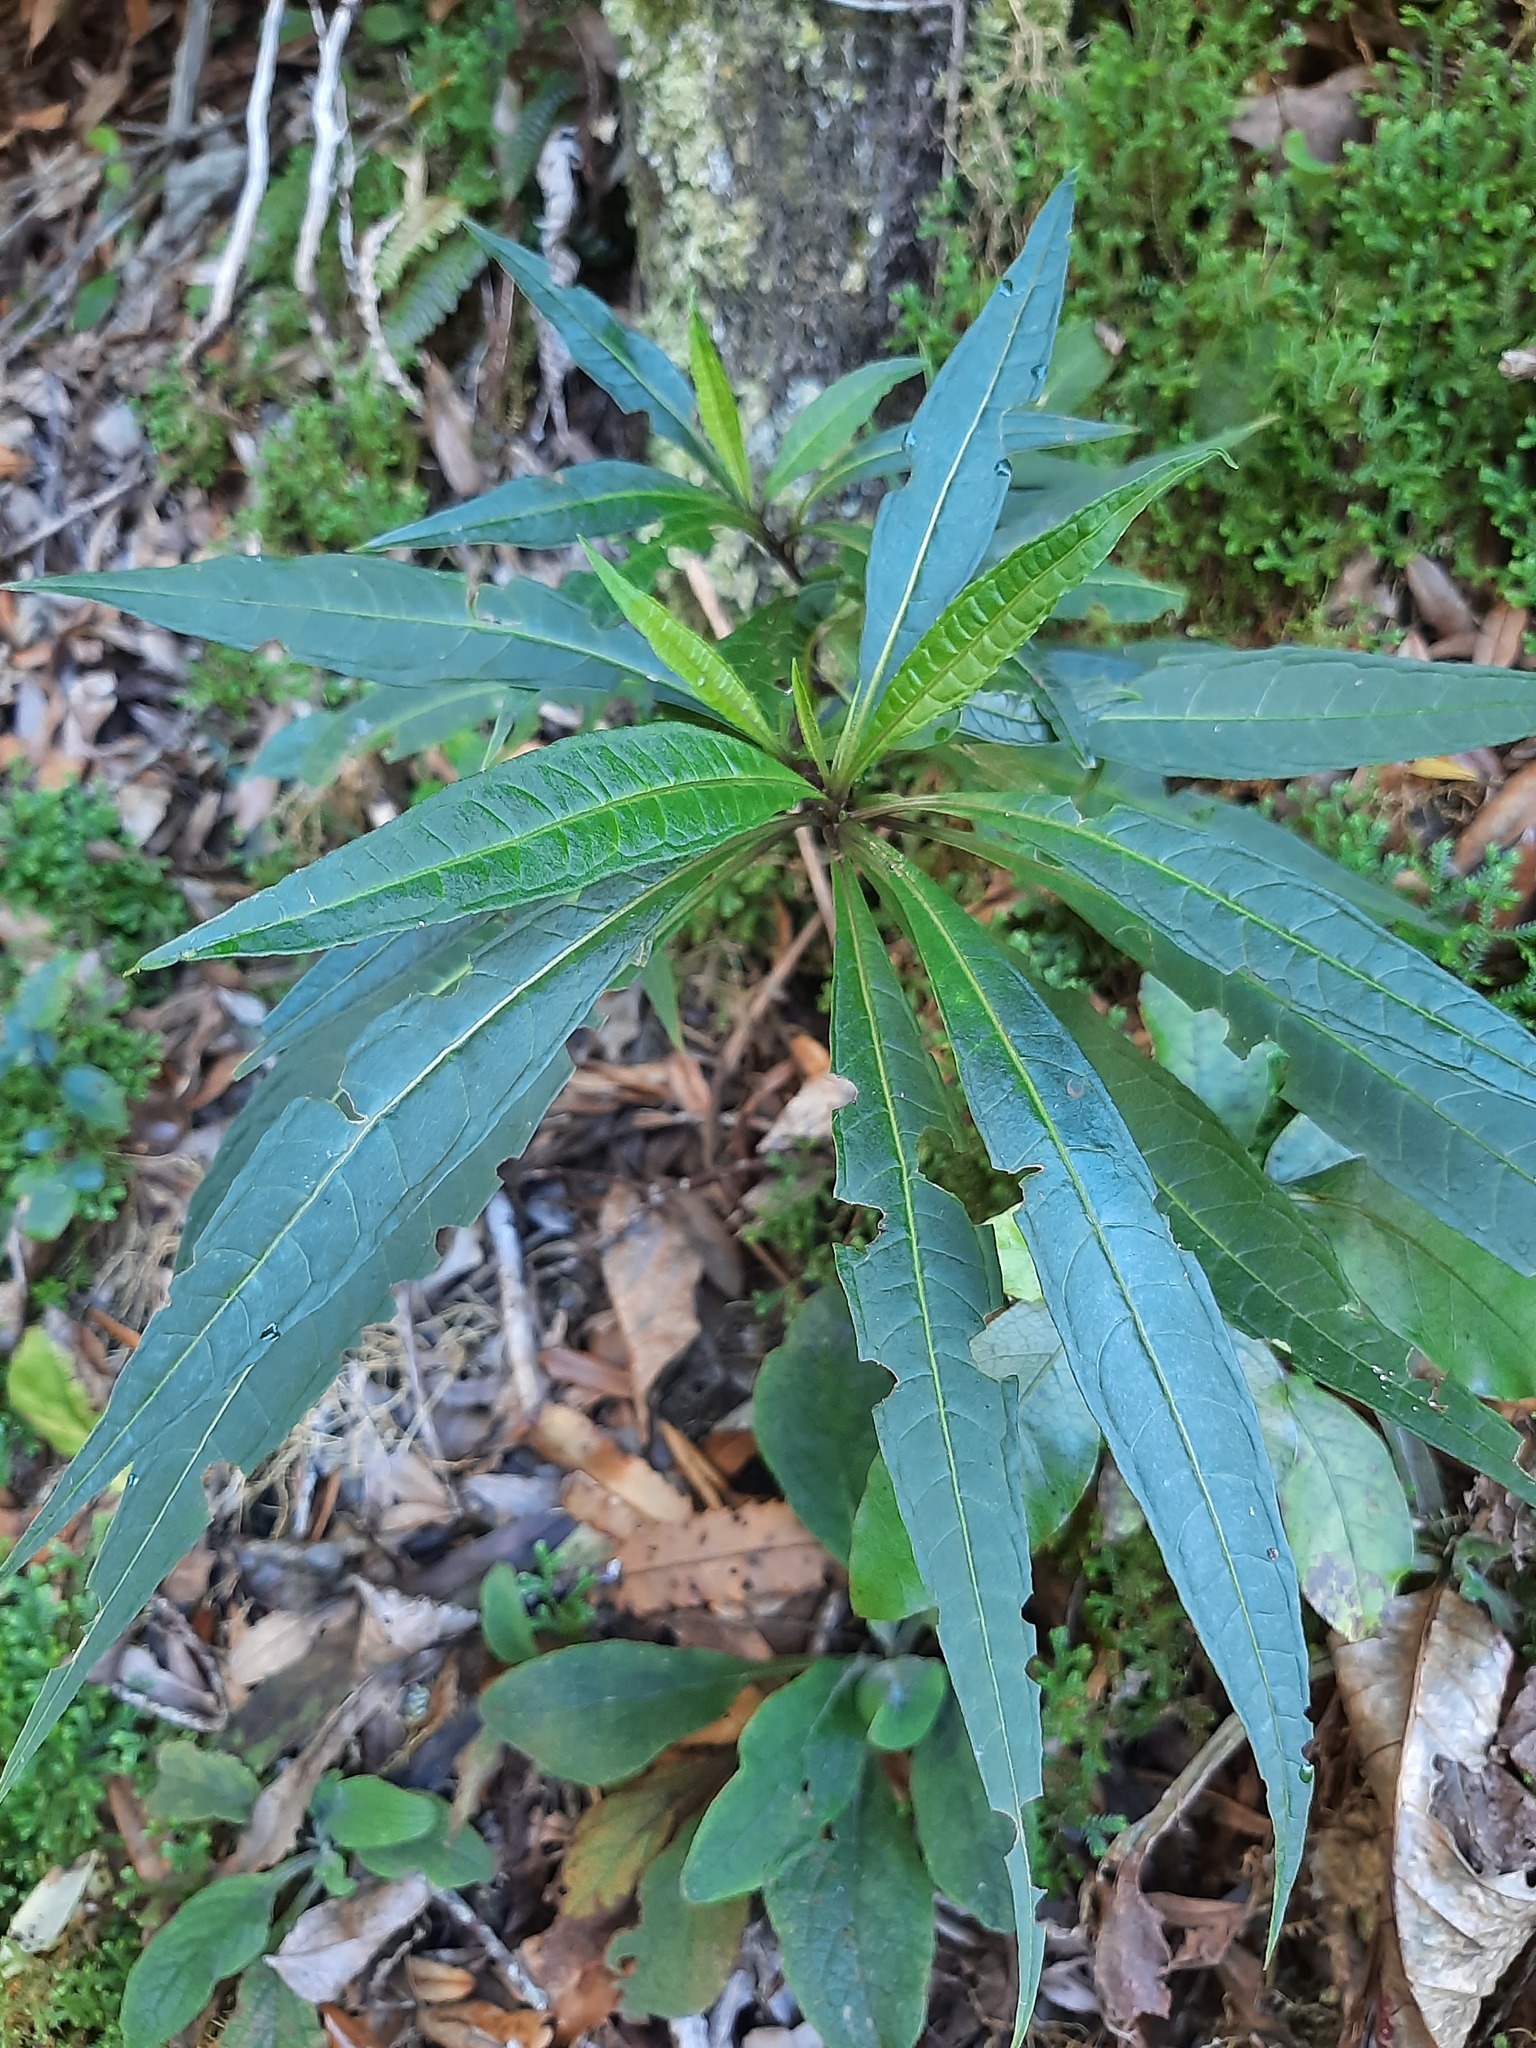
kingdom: Plantae
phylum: Tracheophyta
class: Magnoliopsida
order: Solanales
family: Solanaceae
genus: Solanum
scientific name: Solanum
